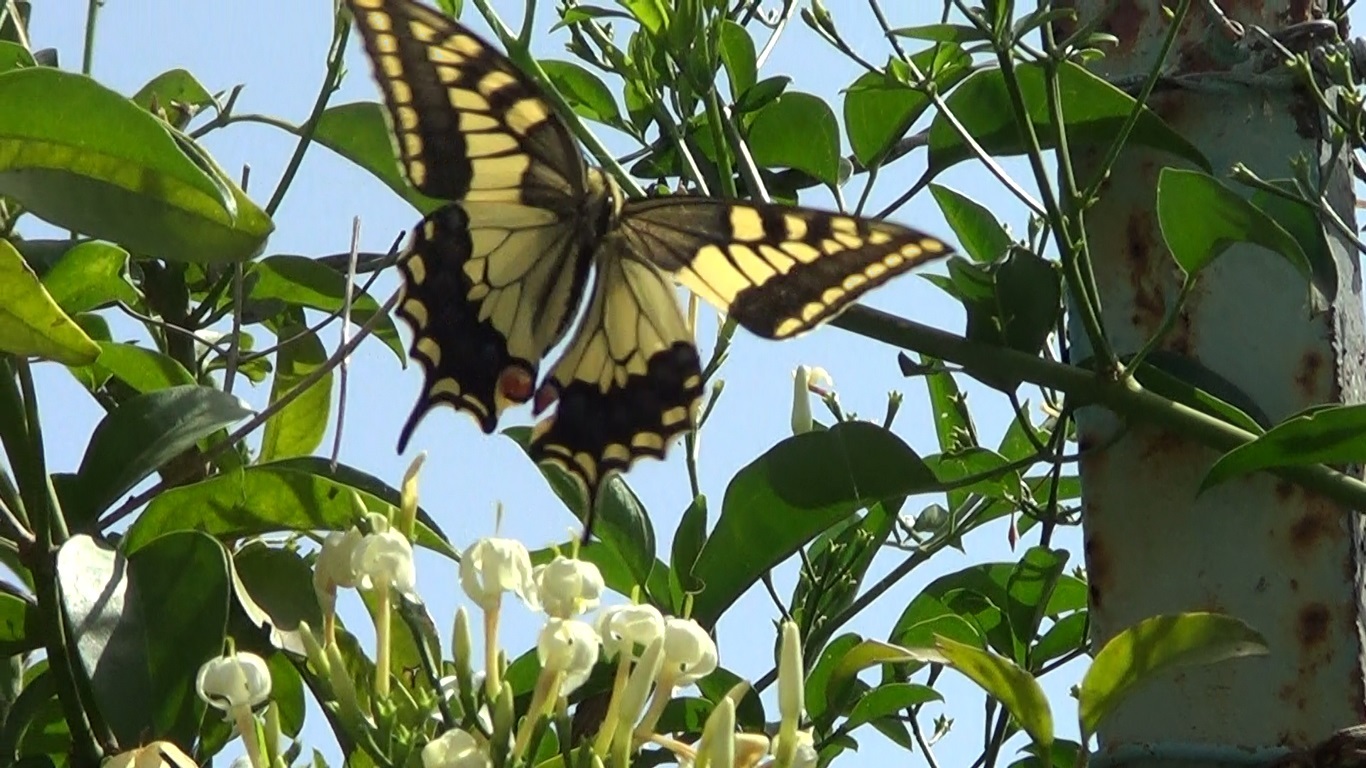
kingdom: Animalia
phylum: Arthropoda
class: Insecta
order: Lepidoptera
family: Papilionidae
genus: Papilio
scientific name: Papilio machaon
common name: Swallowtail
